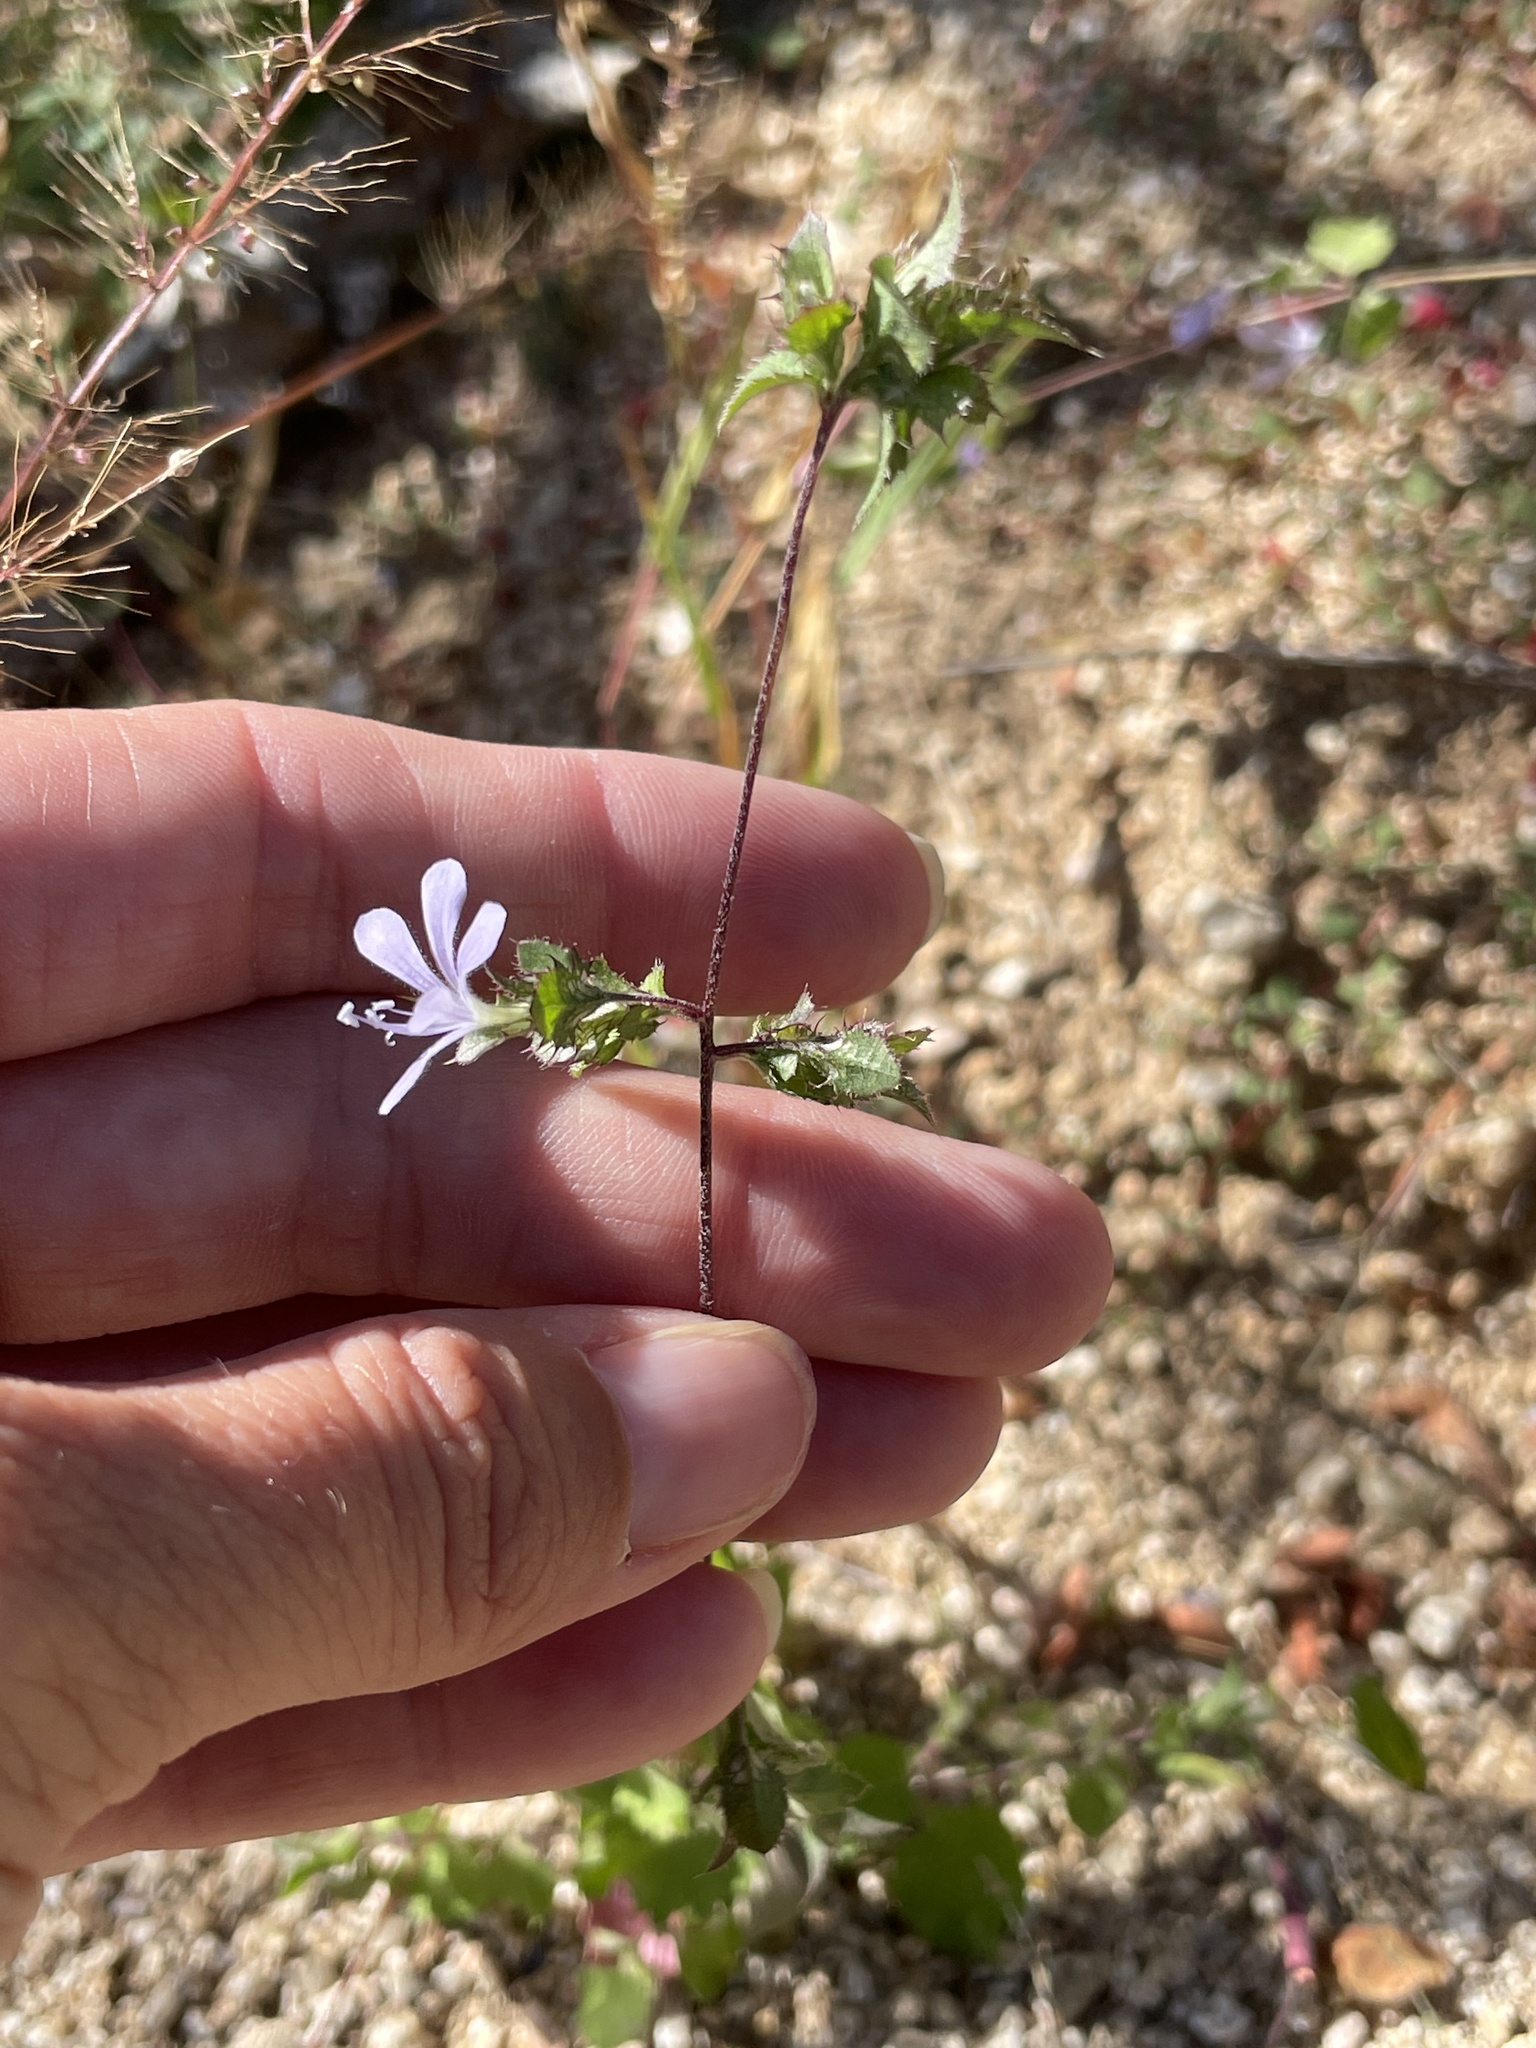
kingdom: Plantae
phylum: Tracheophyta
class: Magnoliopsida
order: Ericales
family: Polemoniaceae
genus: Loeselia
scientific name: Loeselia ciliata
